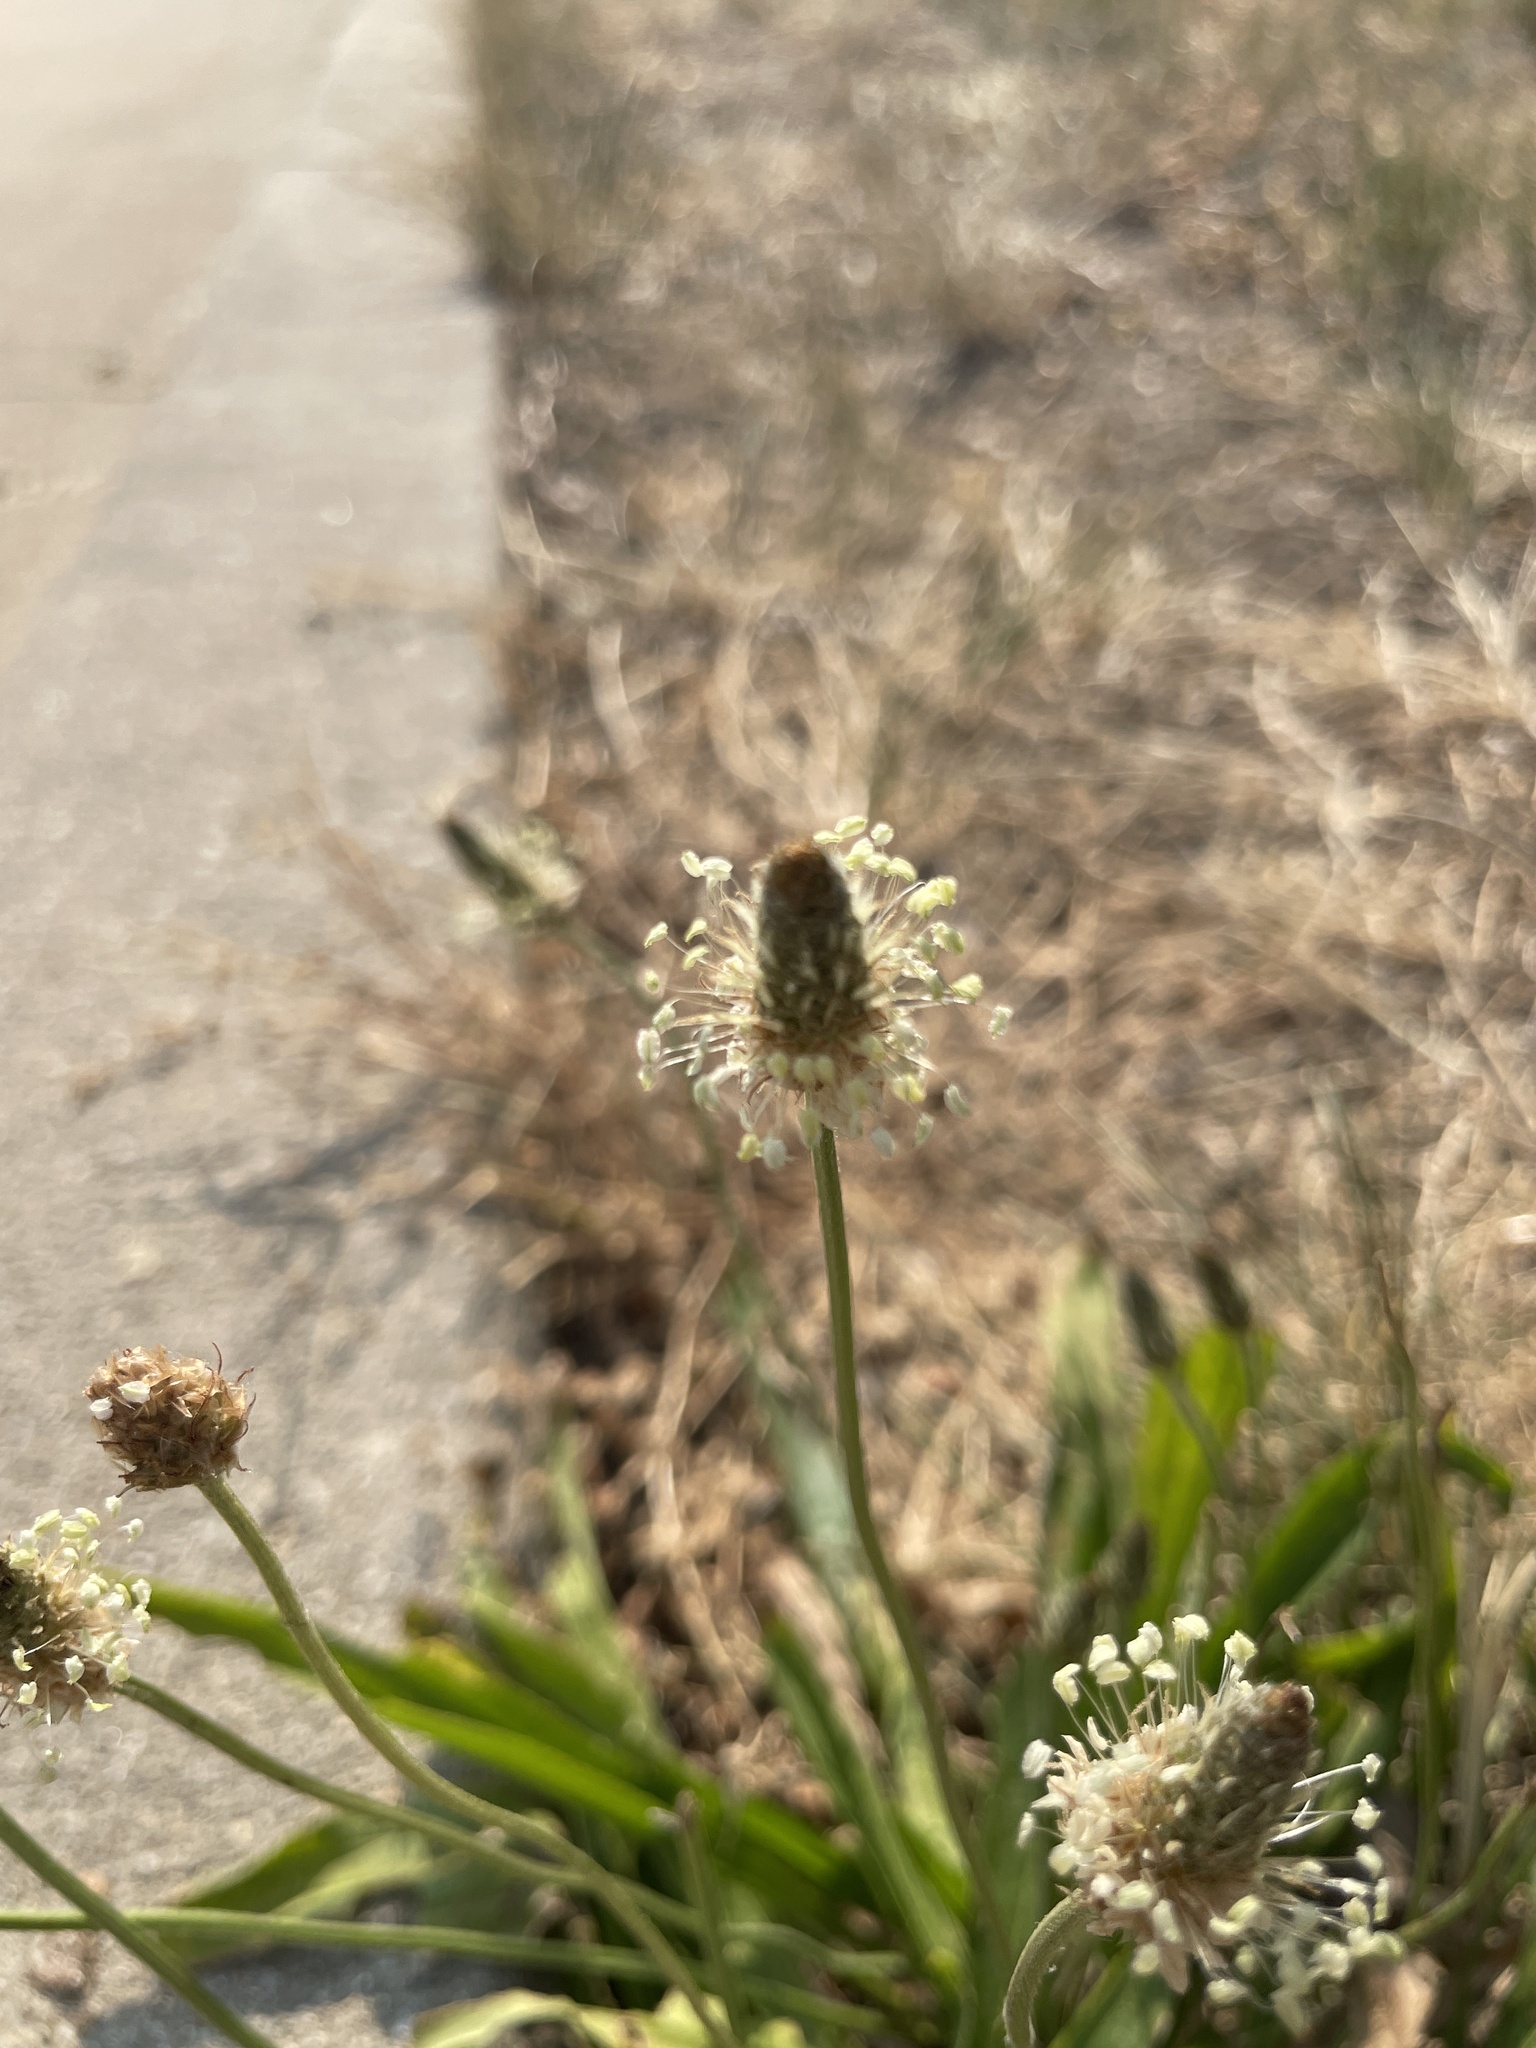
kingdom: Plantae
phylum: Tracheophyta
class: Magnoliopsida
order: Lamiales
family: Plantaginaceae
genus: Plantago
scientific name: Plantago lanceolata
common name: Ribwort plantain
